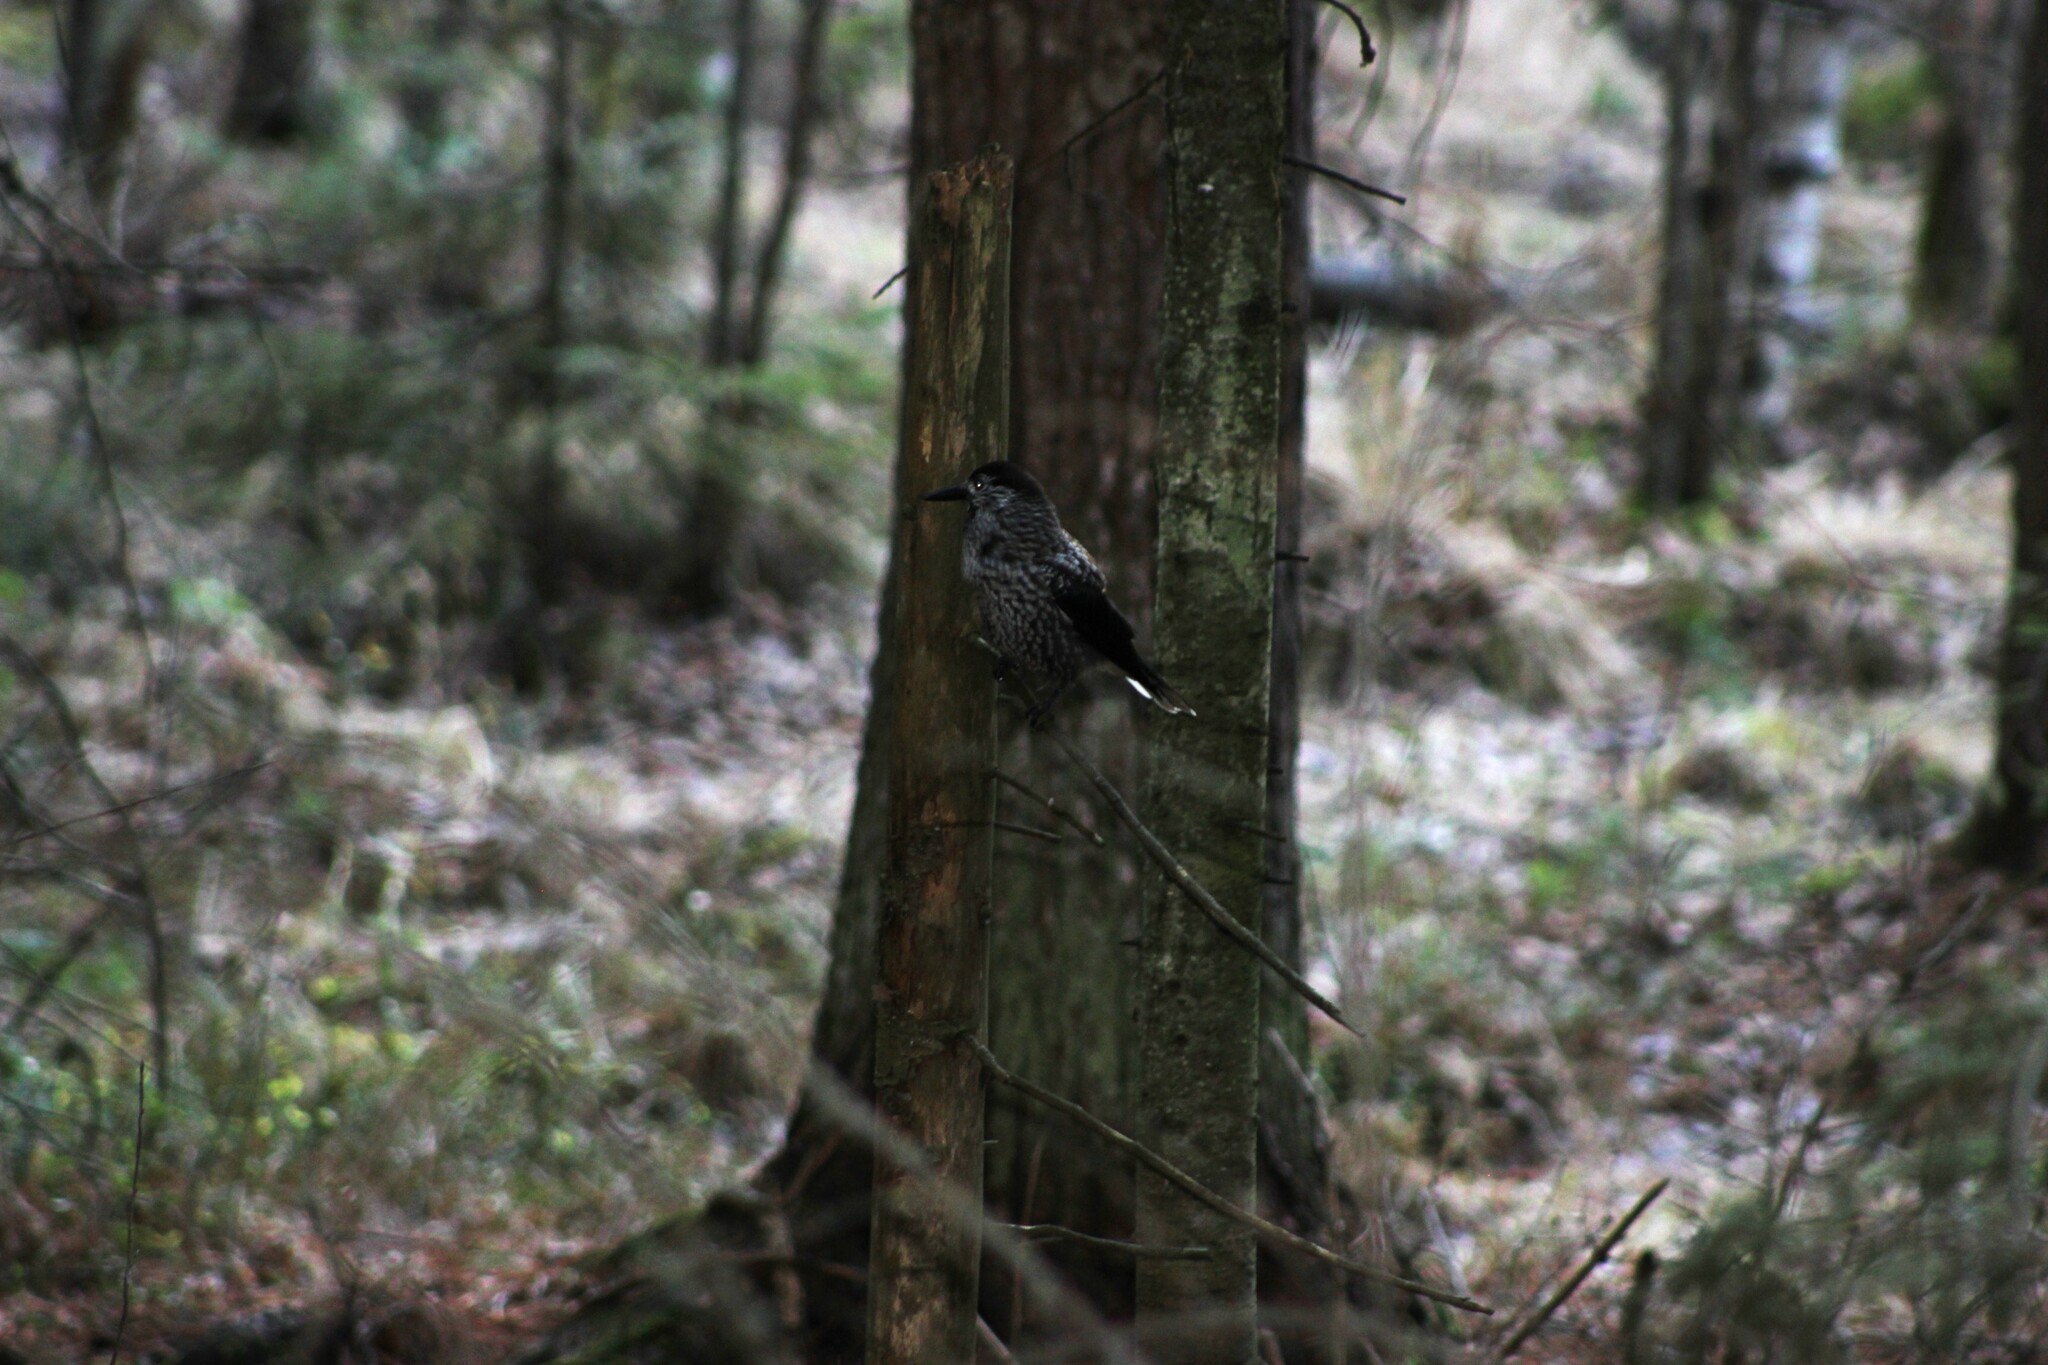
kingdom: Animalia
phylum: Chordata
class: Aves
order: Passeriformes
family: Corvidae
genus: Nucifraga
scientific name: Nucifraga caryocatactes
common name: Spotted nutcracker
